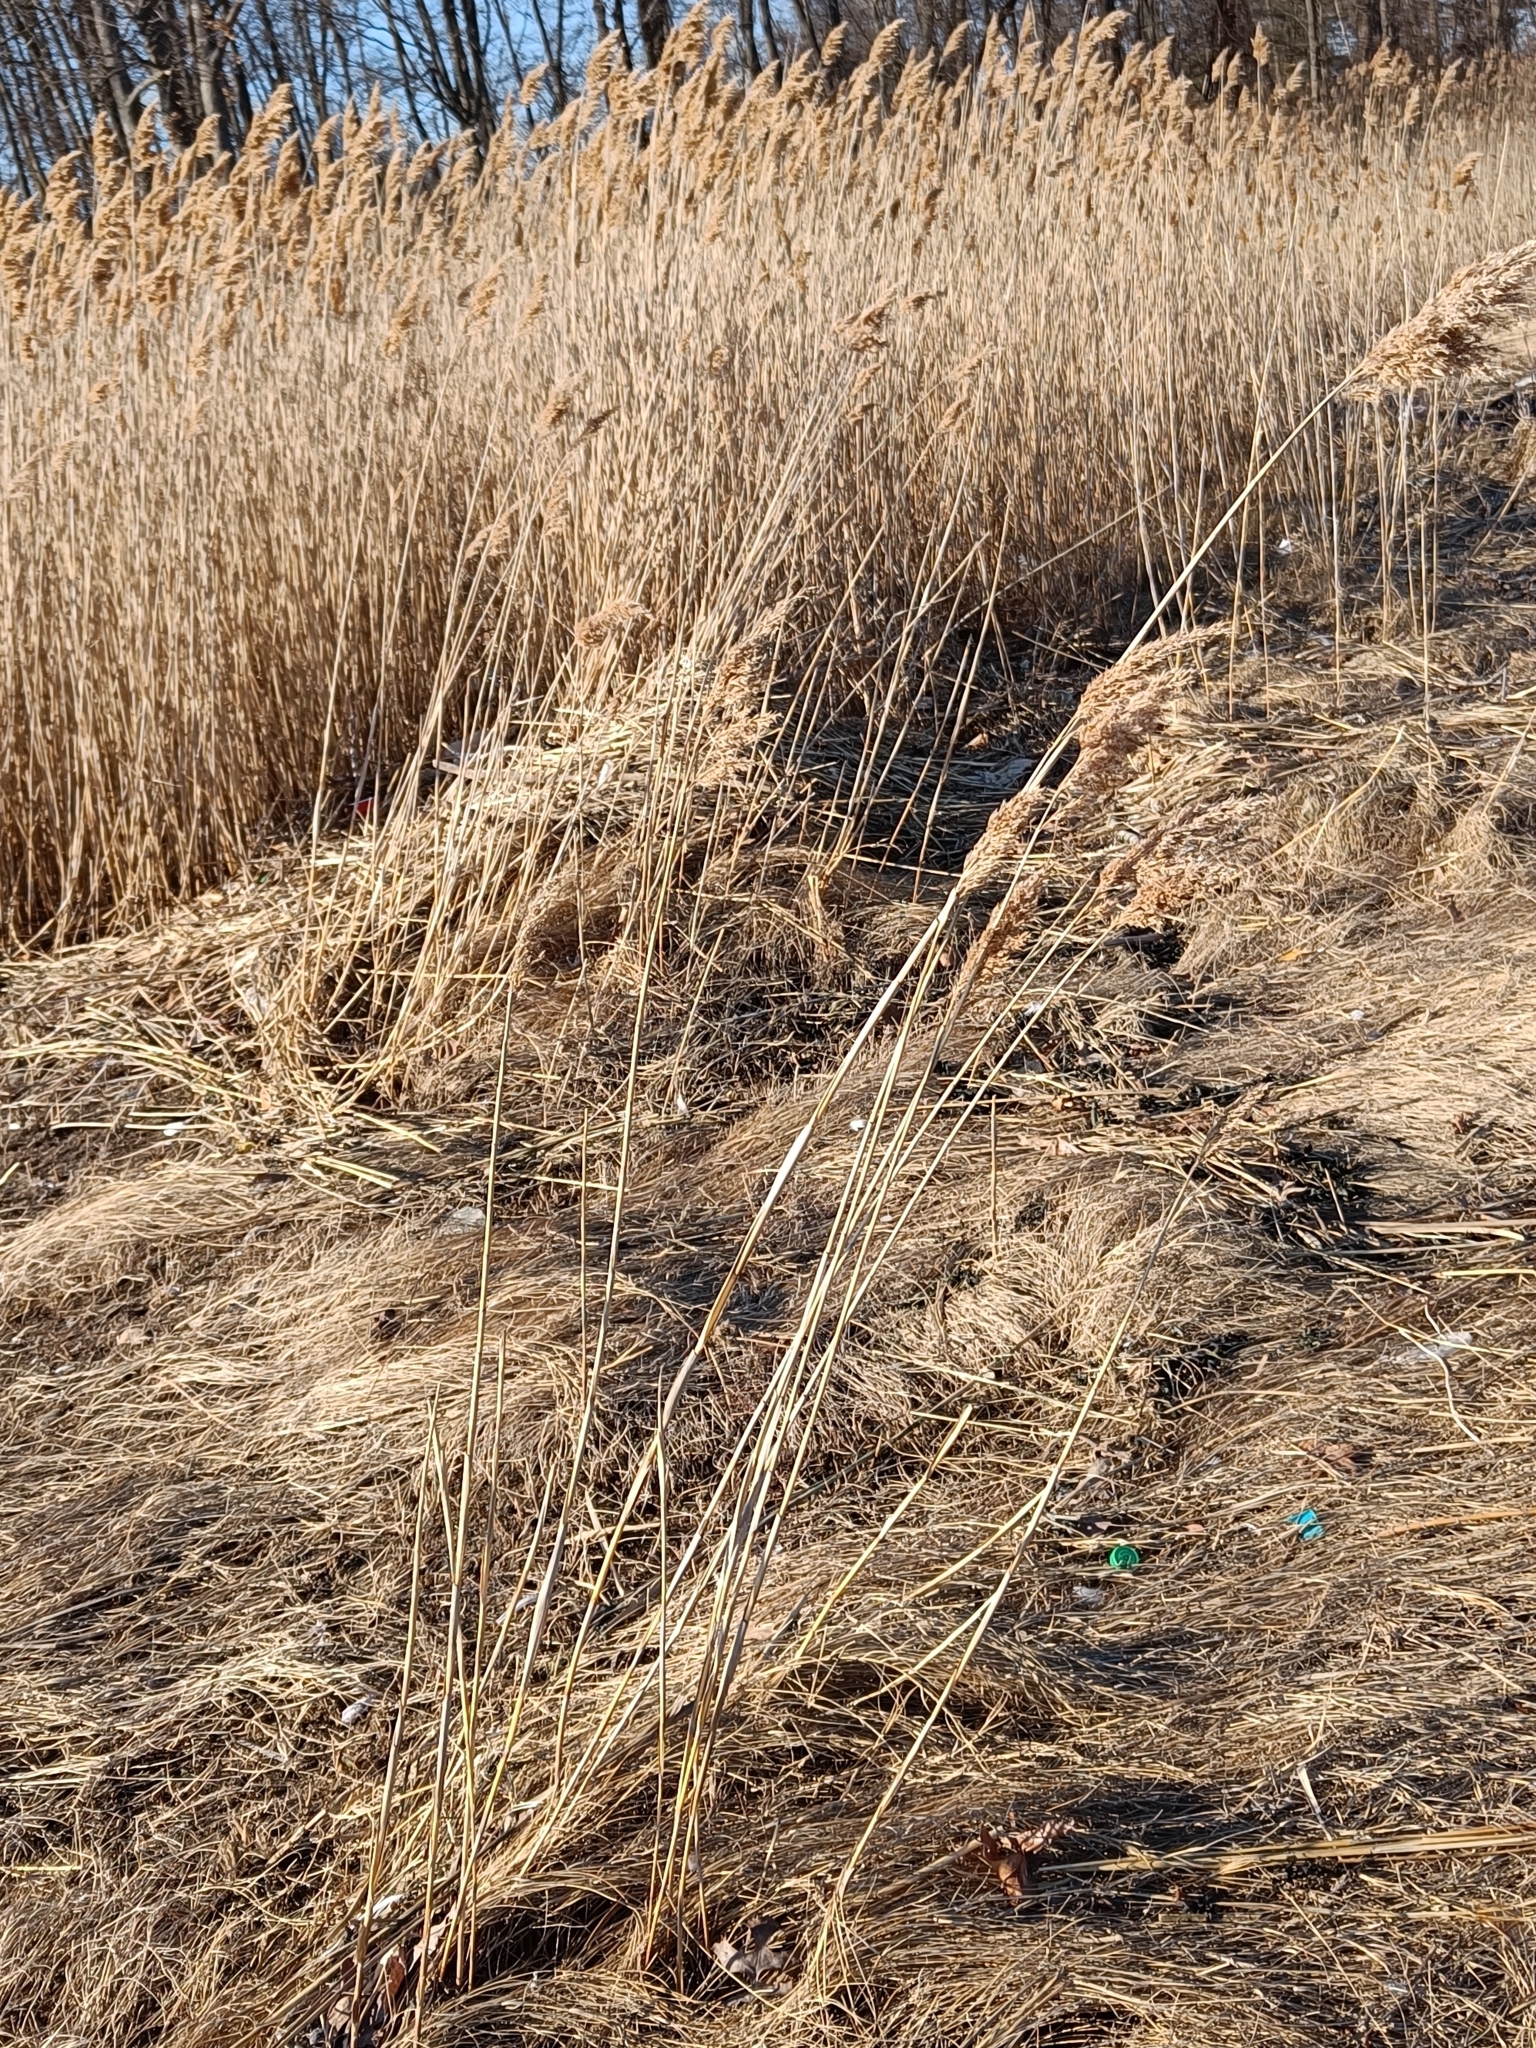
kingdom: Plantae
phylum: Tracheophyta
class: Liliopsida
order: Poales
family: Poaceae
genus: Phragmites
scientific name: Phragmites australis
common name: Common reed
